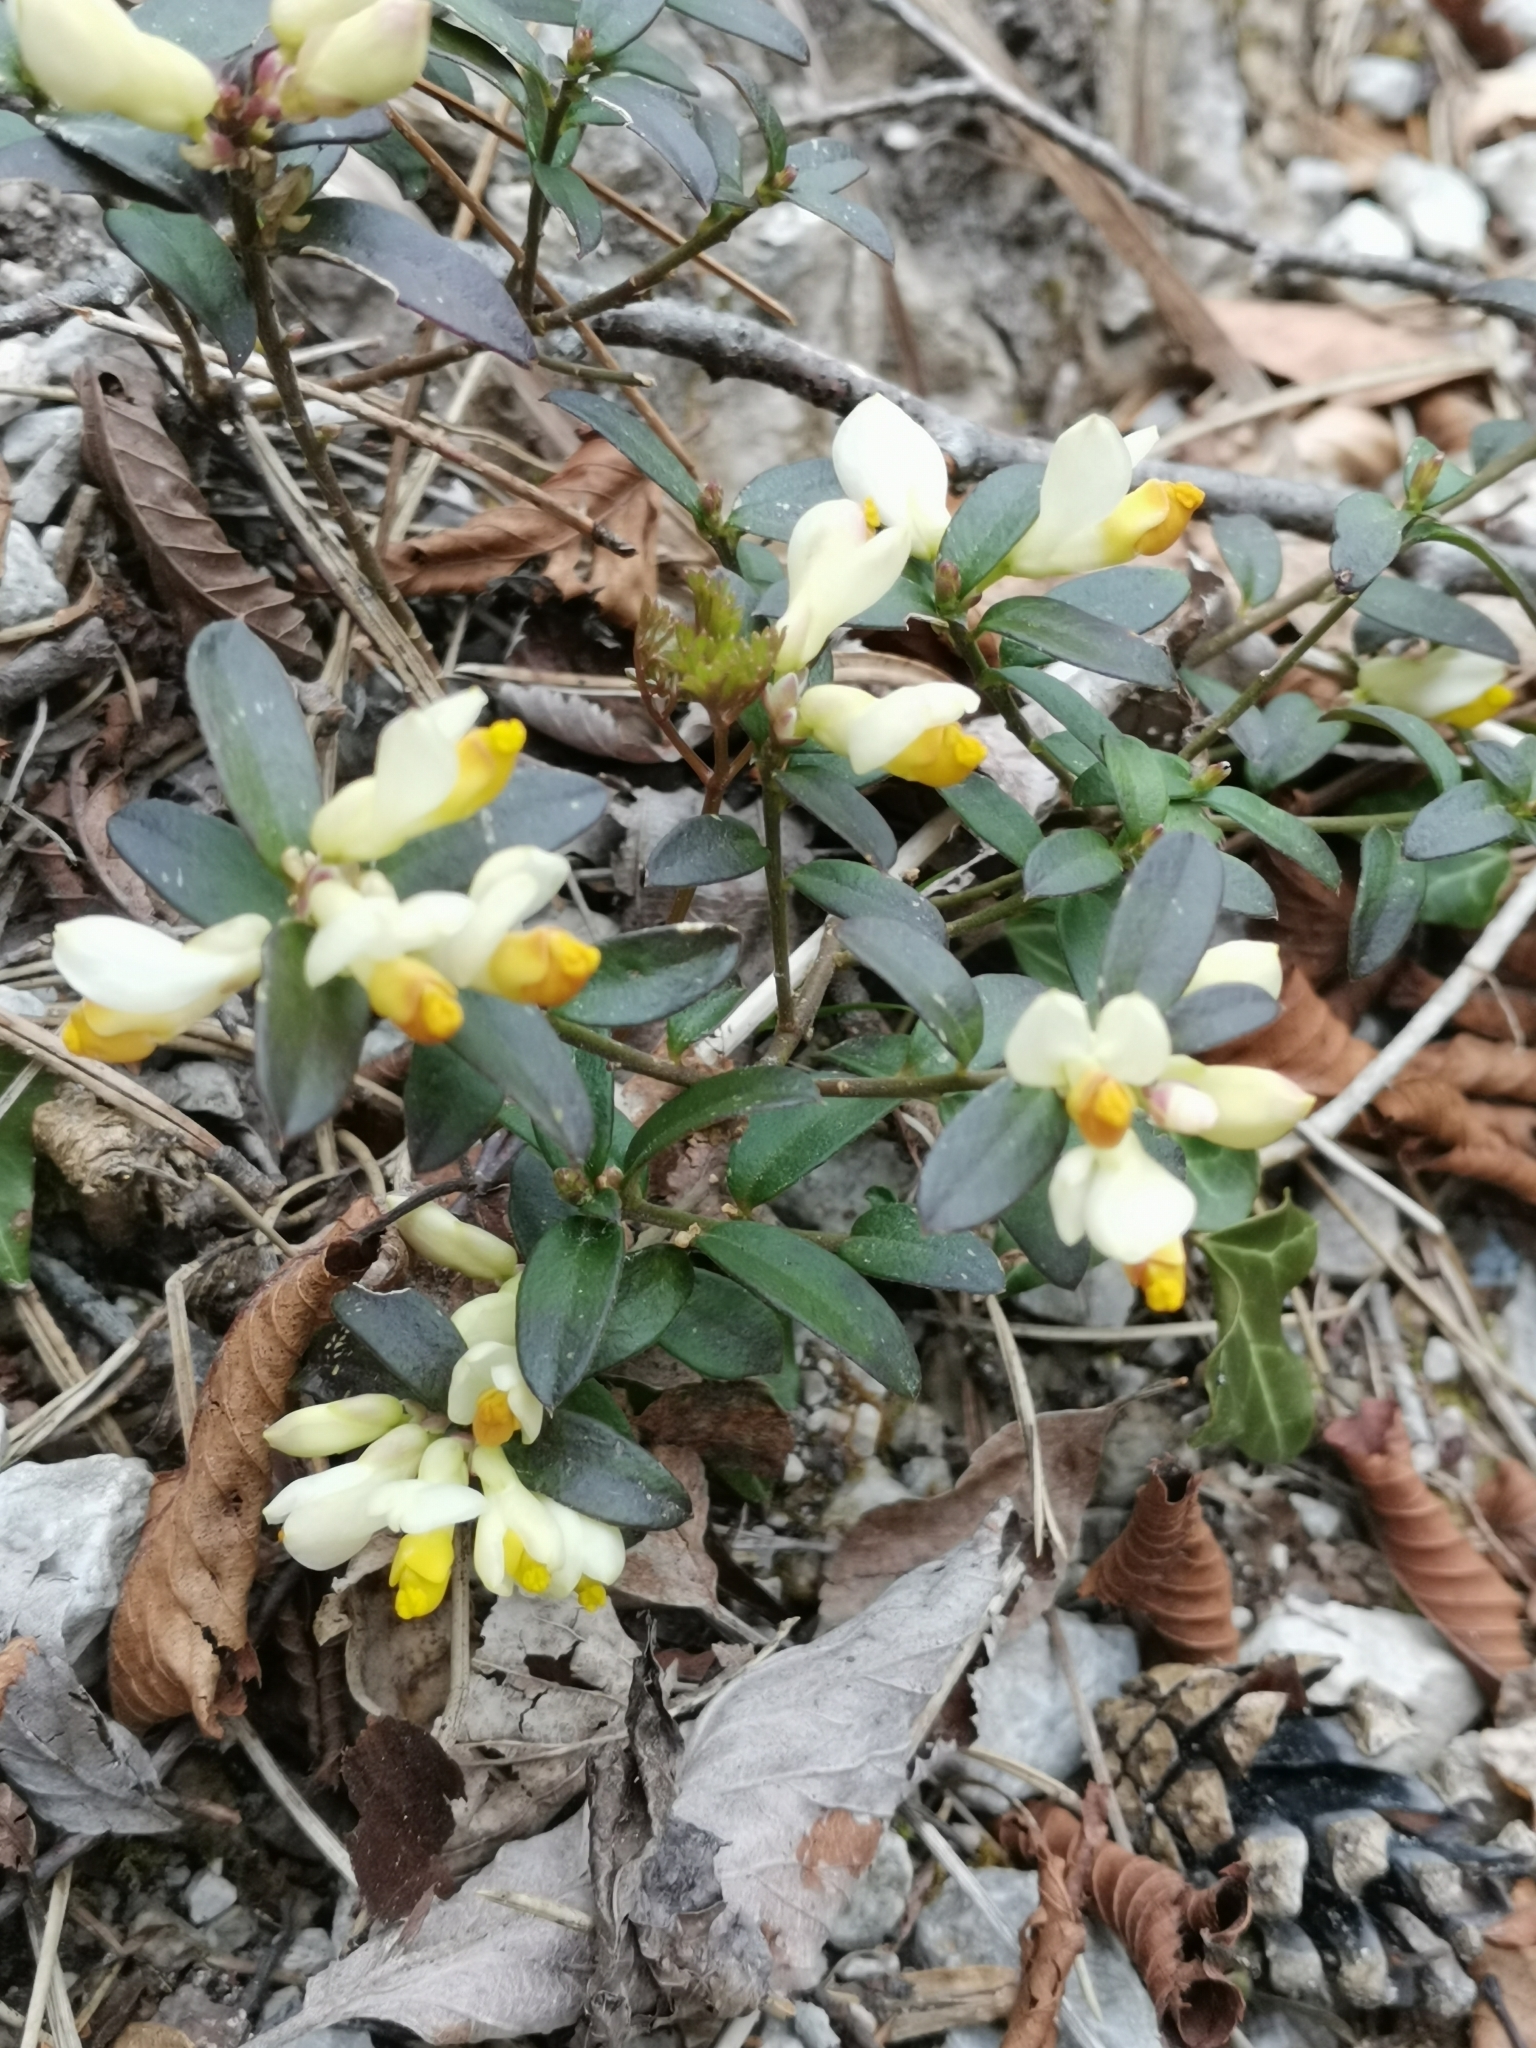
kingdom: Plantae
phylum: Tracheophyta
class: Magnoliopsida
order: Fabales
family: Polygalaceae
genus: Polygaloides
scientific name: Polygaloides chamaebuxus
